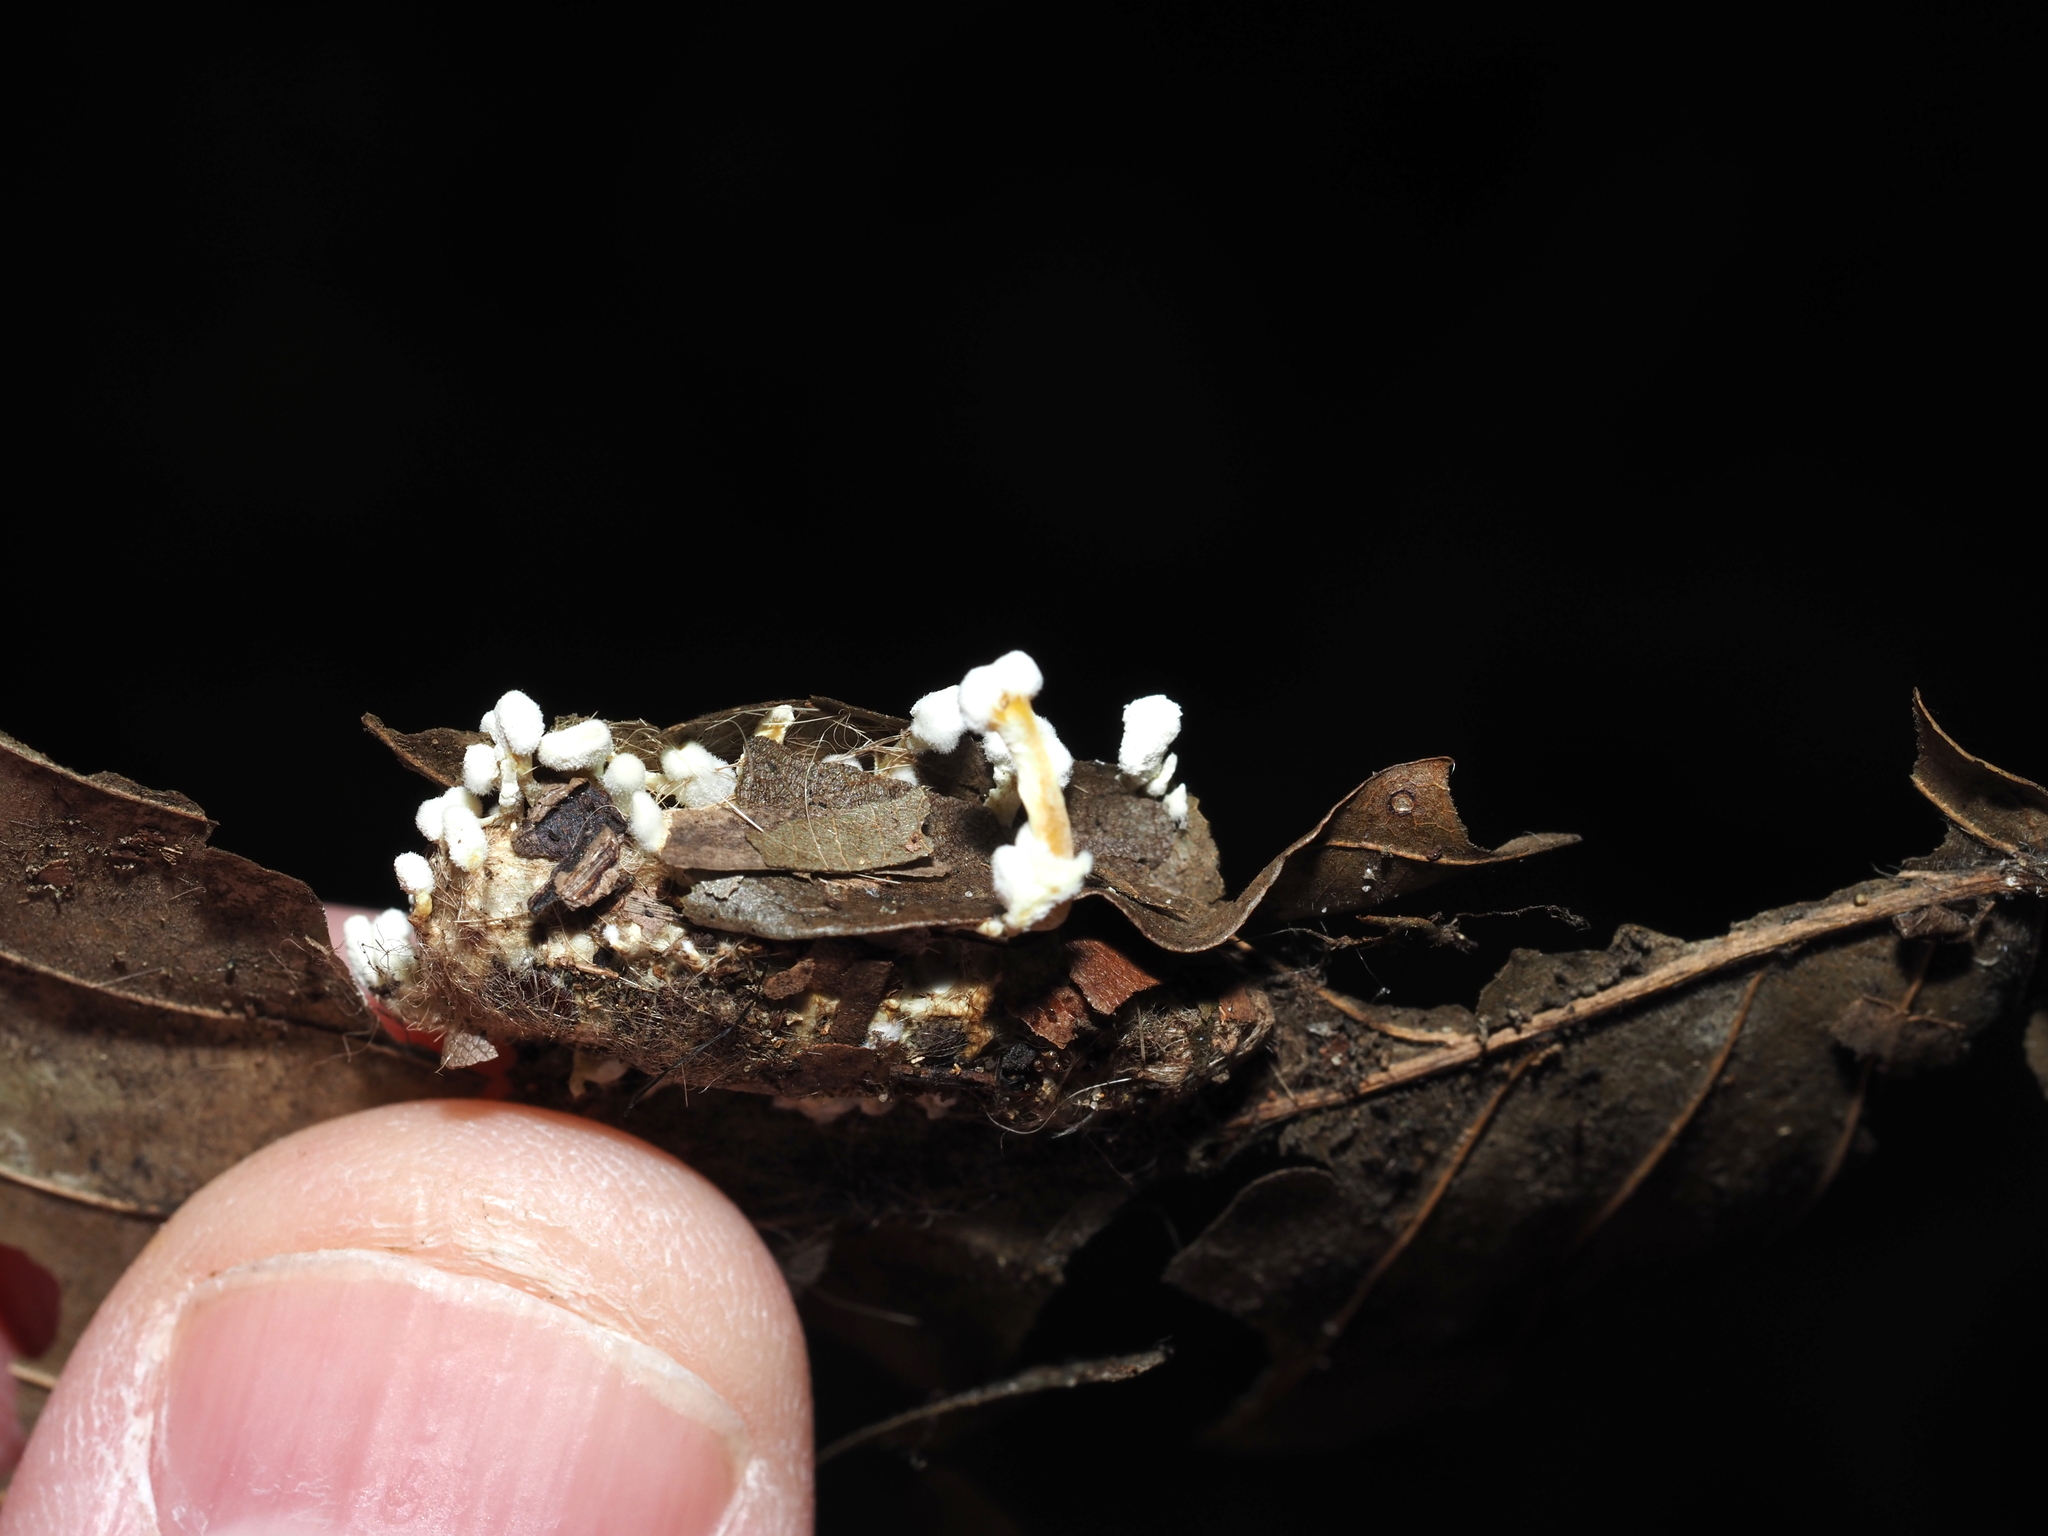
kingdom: Fungi
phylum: Ascomycota
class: Sordariomycetes
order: Hypocreales
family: Cordycipitaceae
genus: Cordyceps
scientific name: Cordyceps tenuipes
